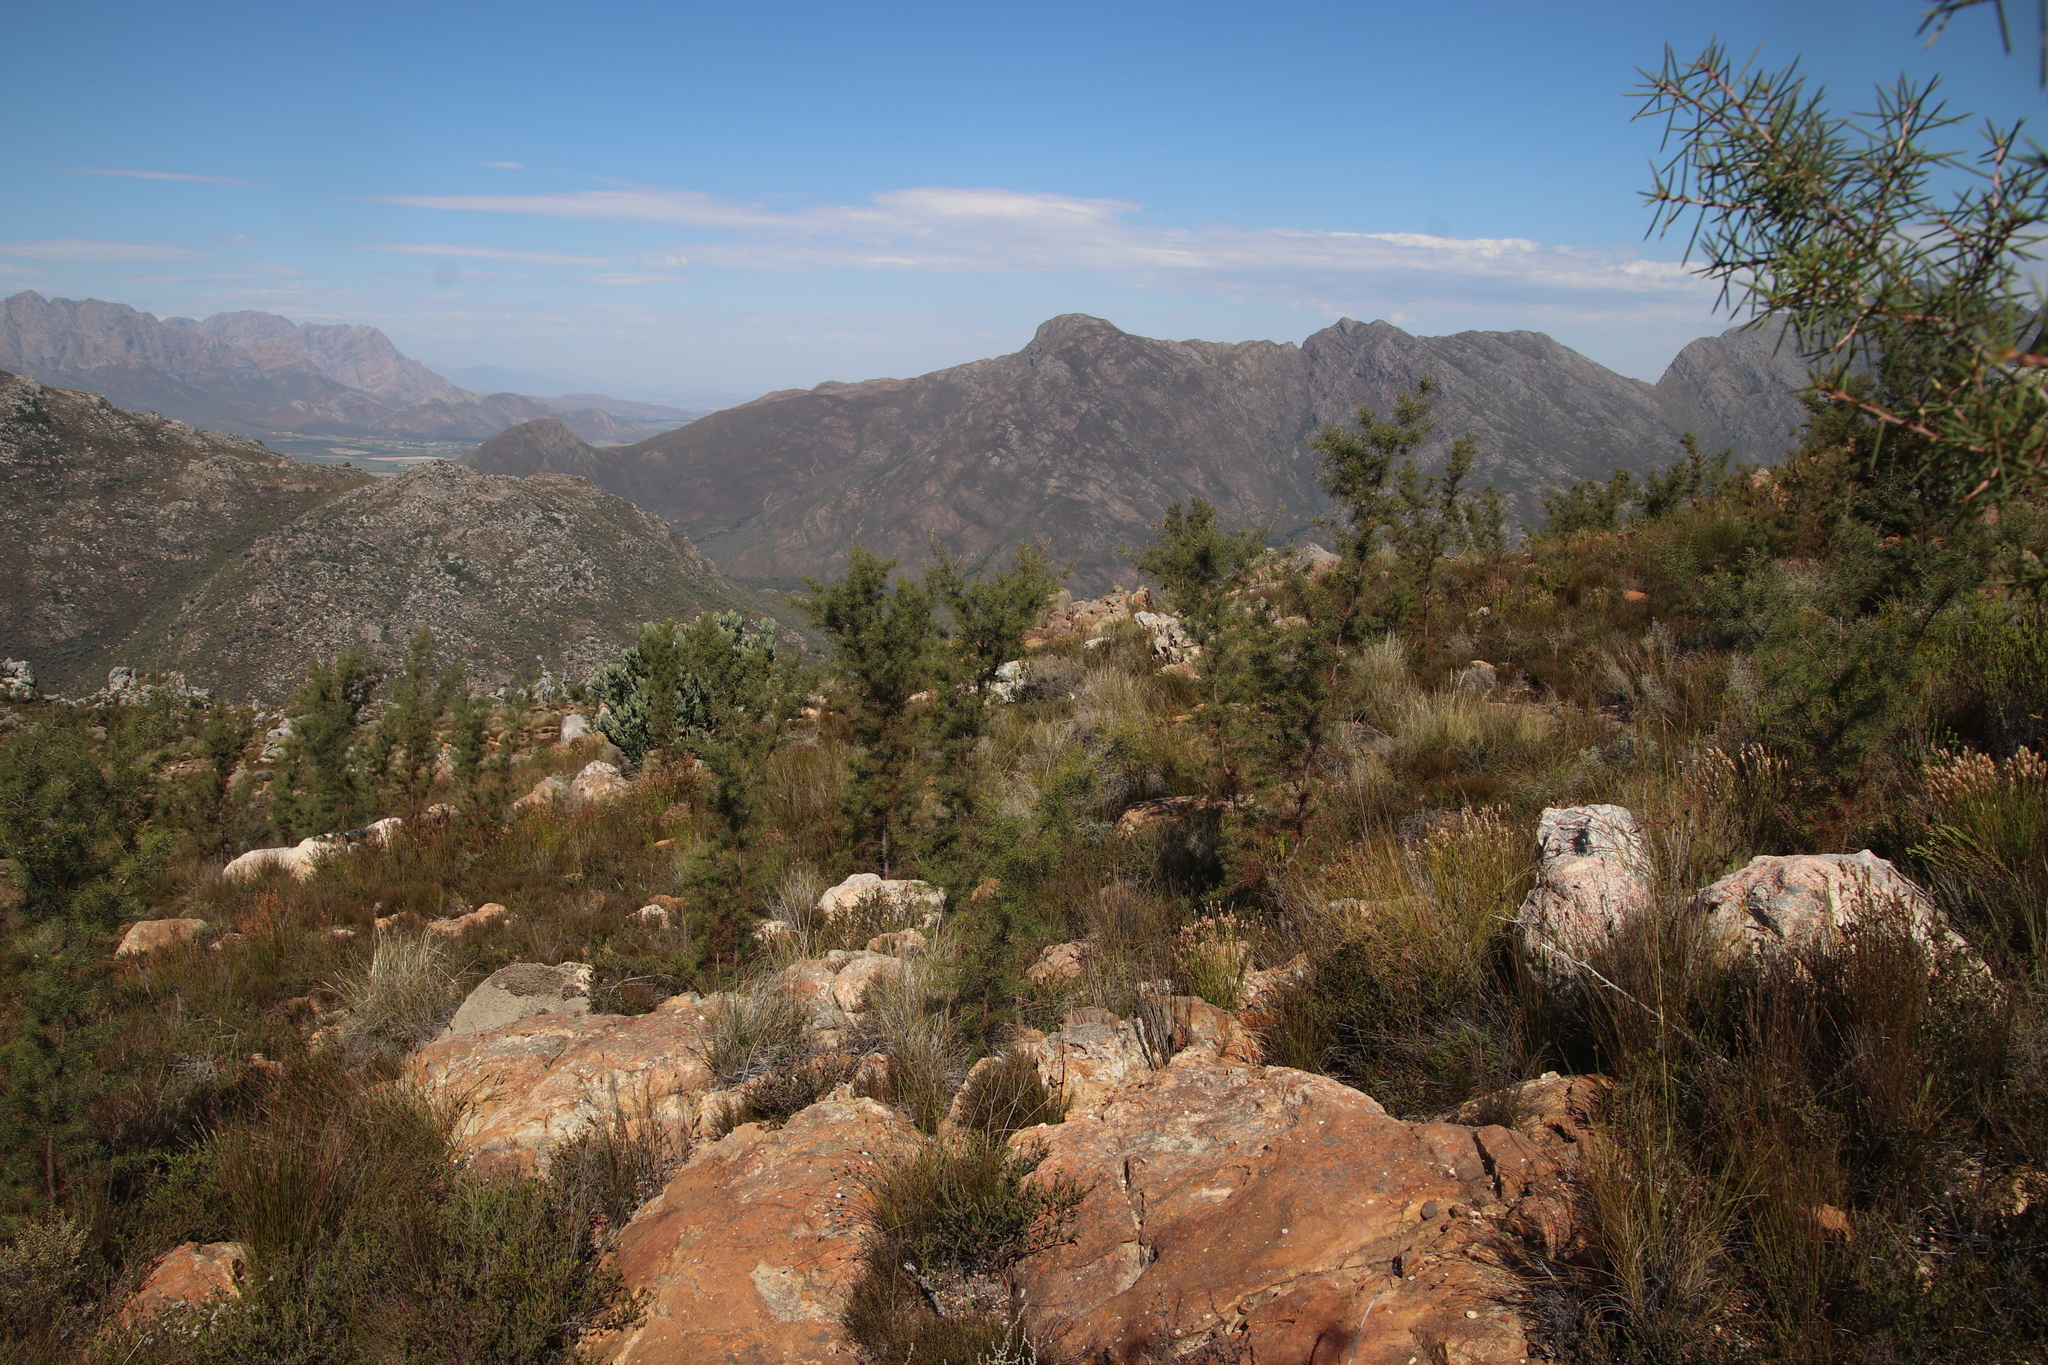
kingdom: Plantae
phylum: Tracheophyta
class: Magnoliopsida
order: Proteales
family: Proteaceae
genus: Hakea
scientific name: Hakea sericea
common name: Needle bush
